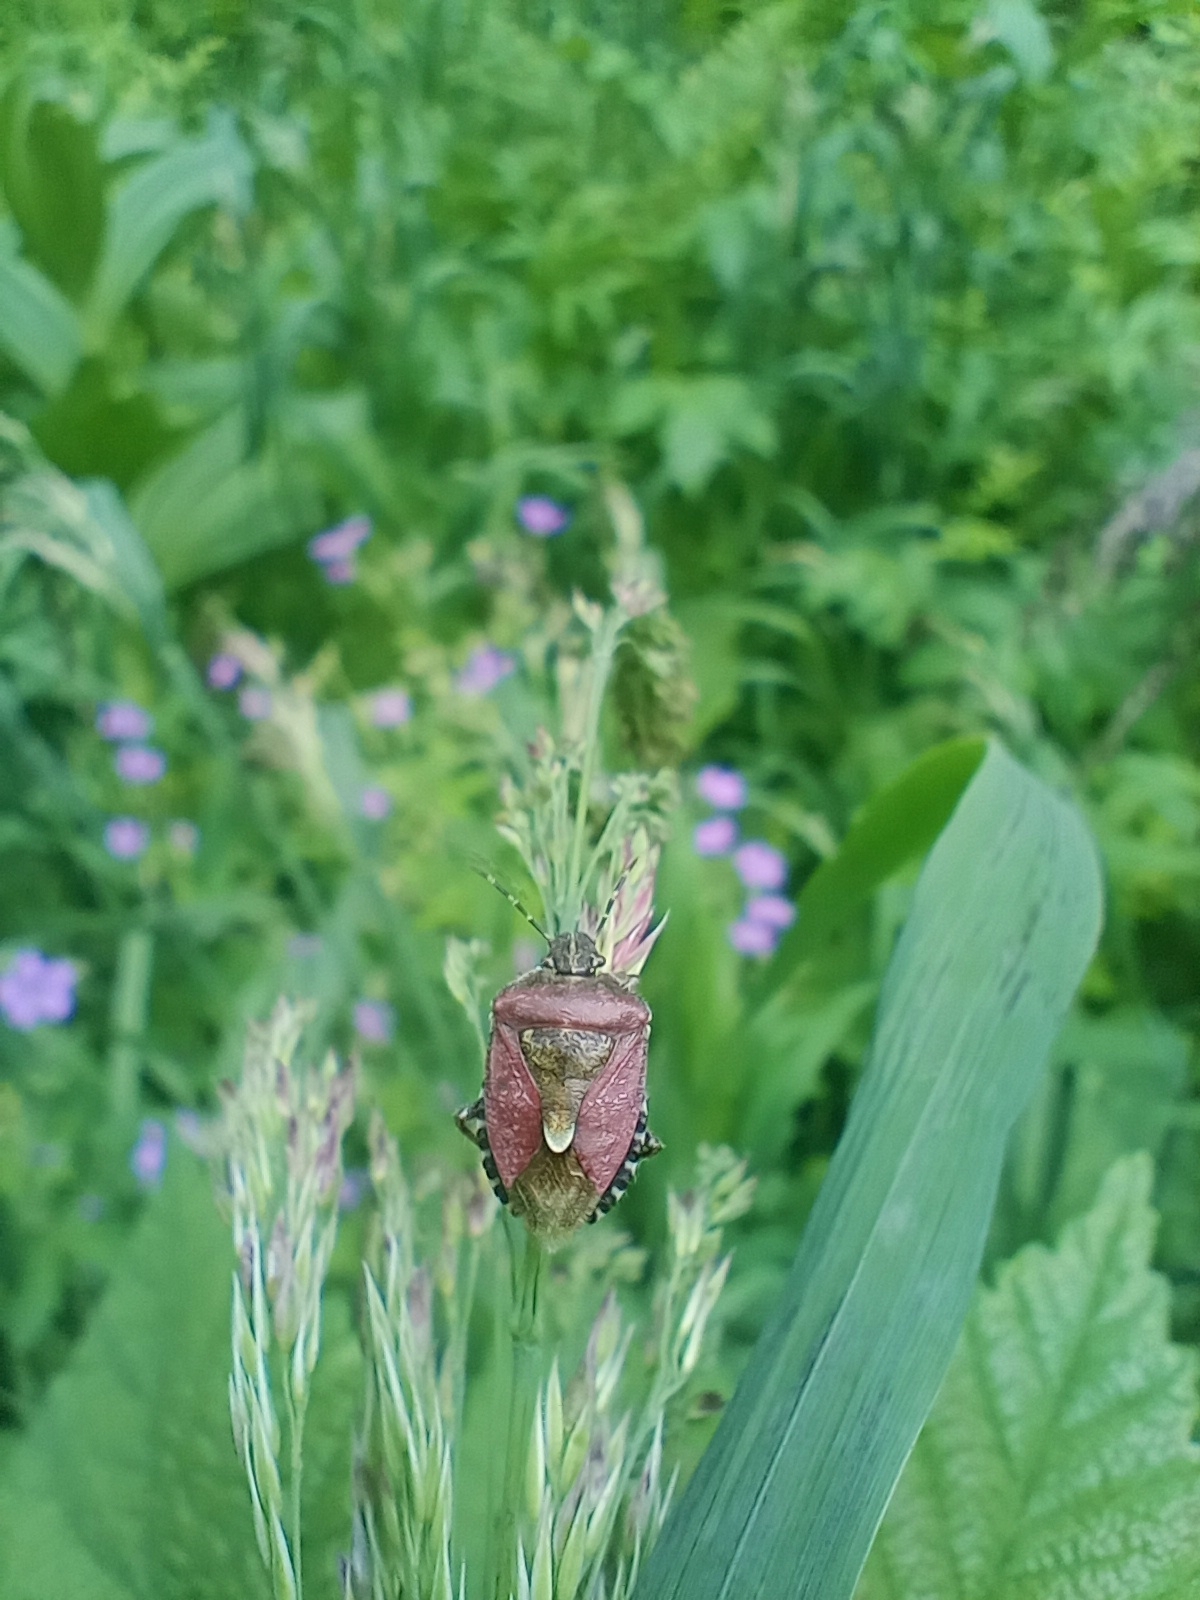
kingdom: Animalia
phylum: Arthropoda
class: Insecta
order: Hemiptera
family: Pentatomidae
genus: Dolycoris
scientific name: Dolycoris baccarum
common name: Sloe bug
